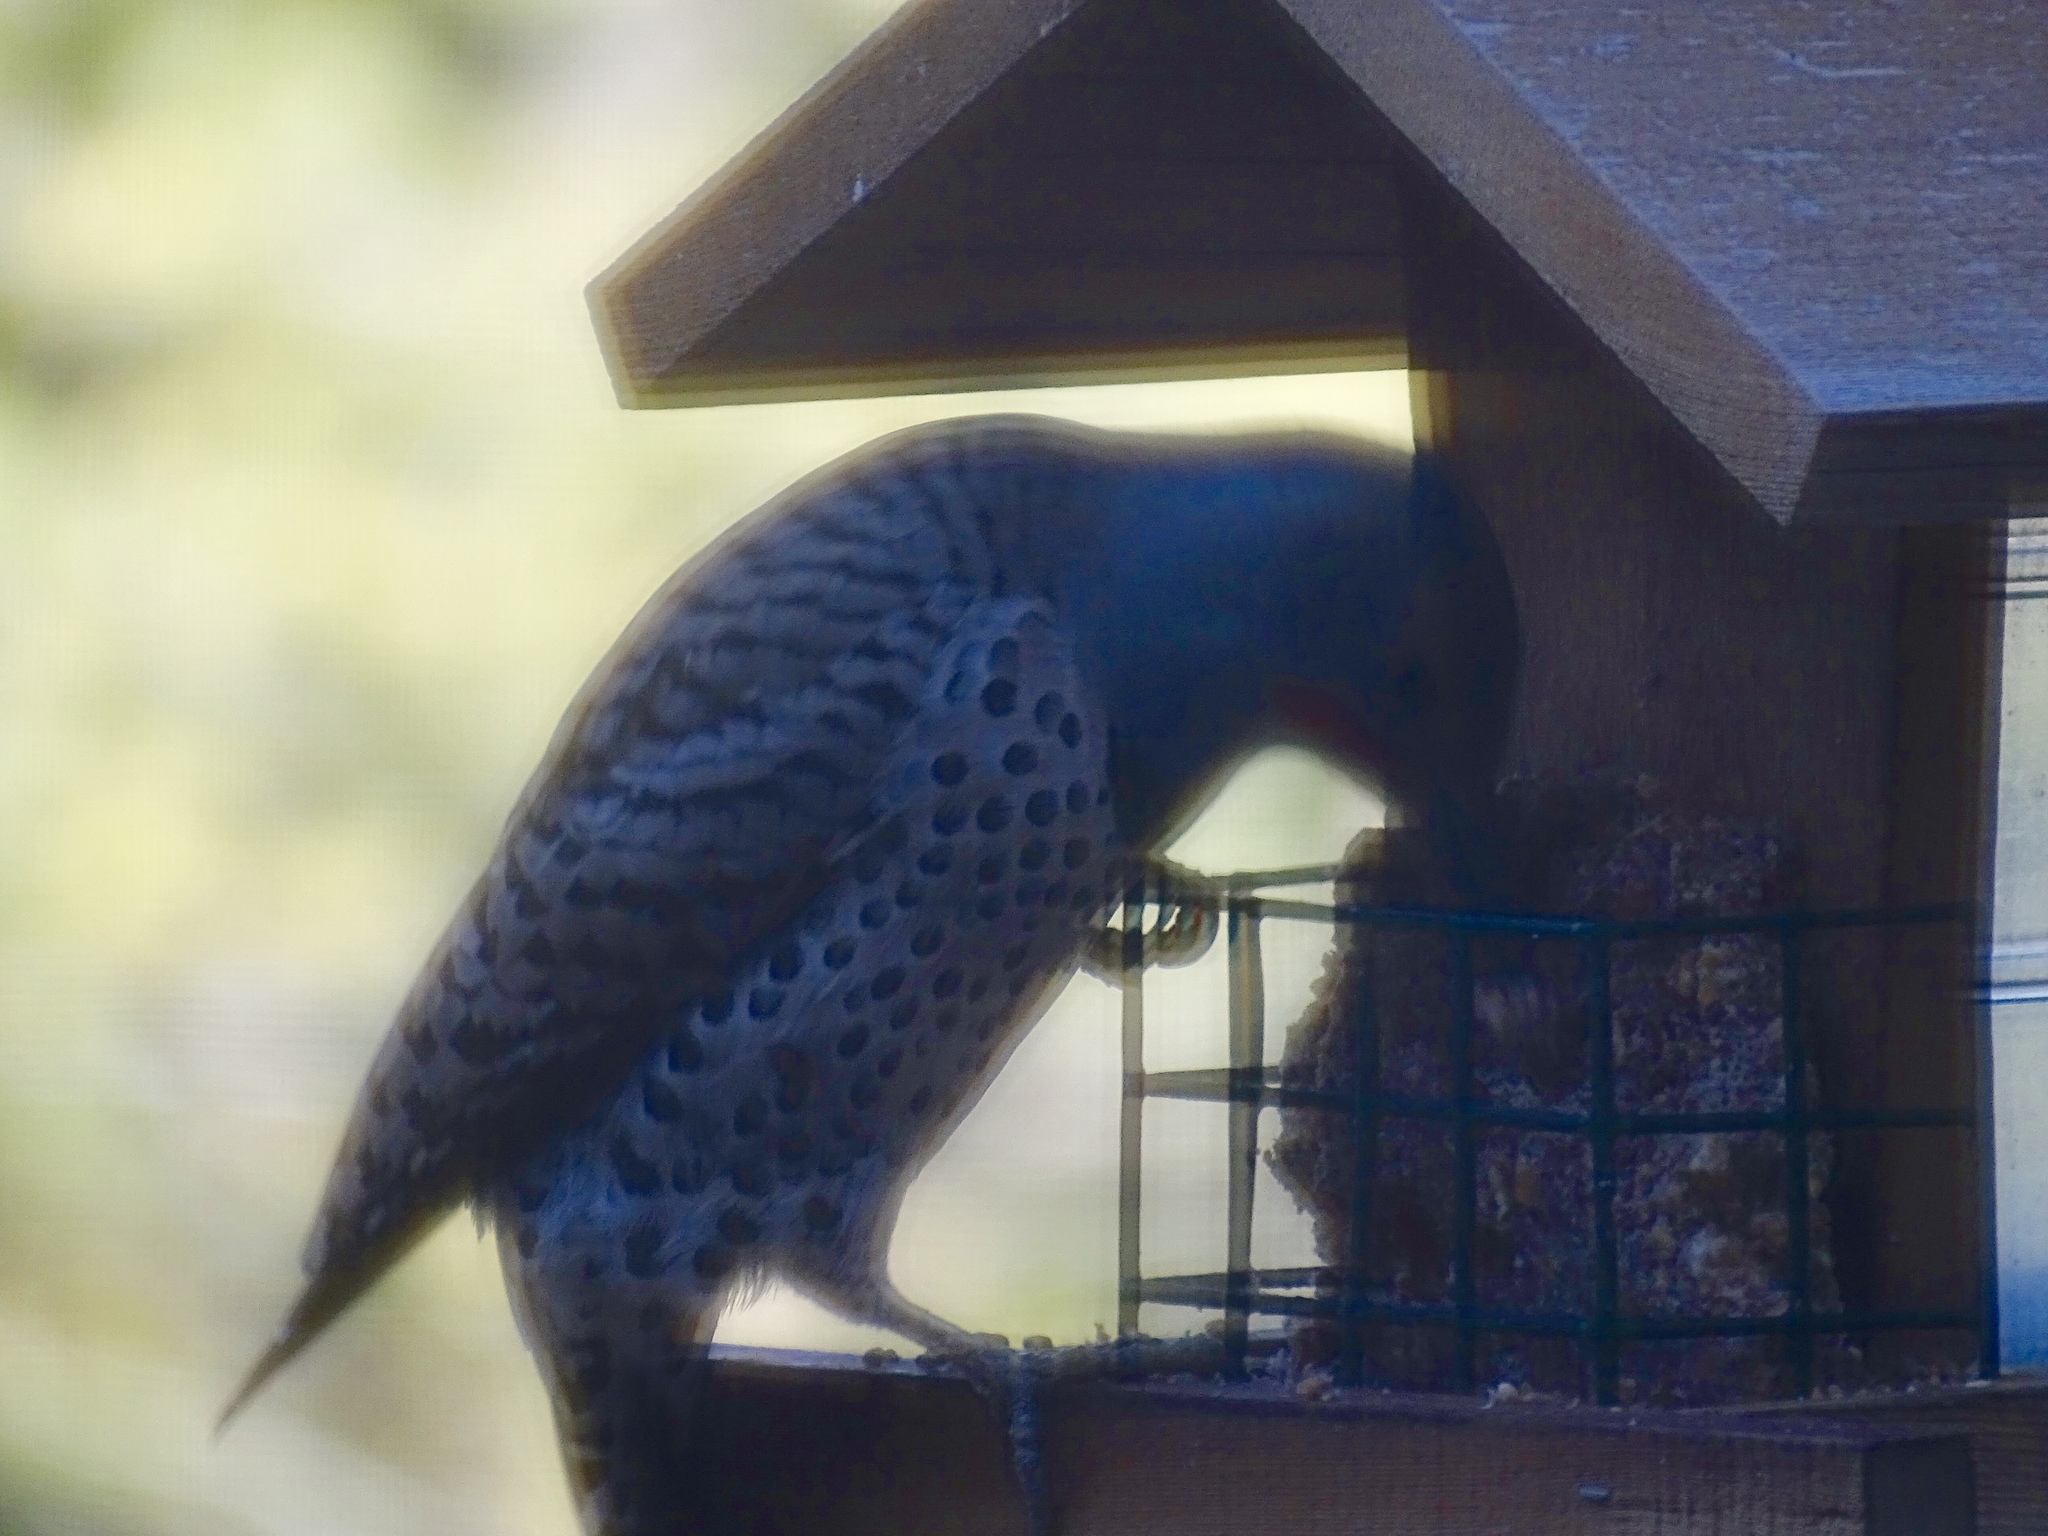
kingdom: Animalia
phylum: Chordata
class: Aves
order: Piciformes
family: Picidae
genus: Colaptes
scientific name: Colaptes auratus
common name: Northern flicker
